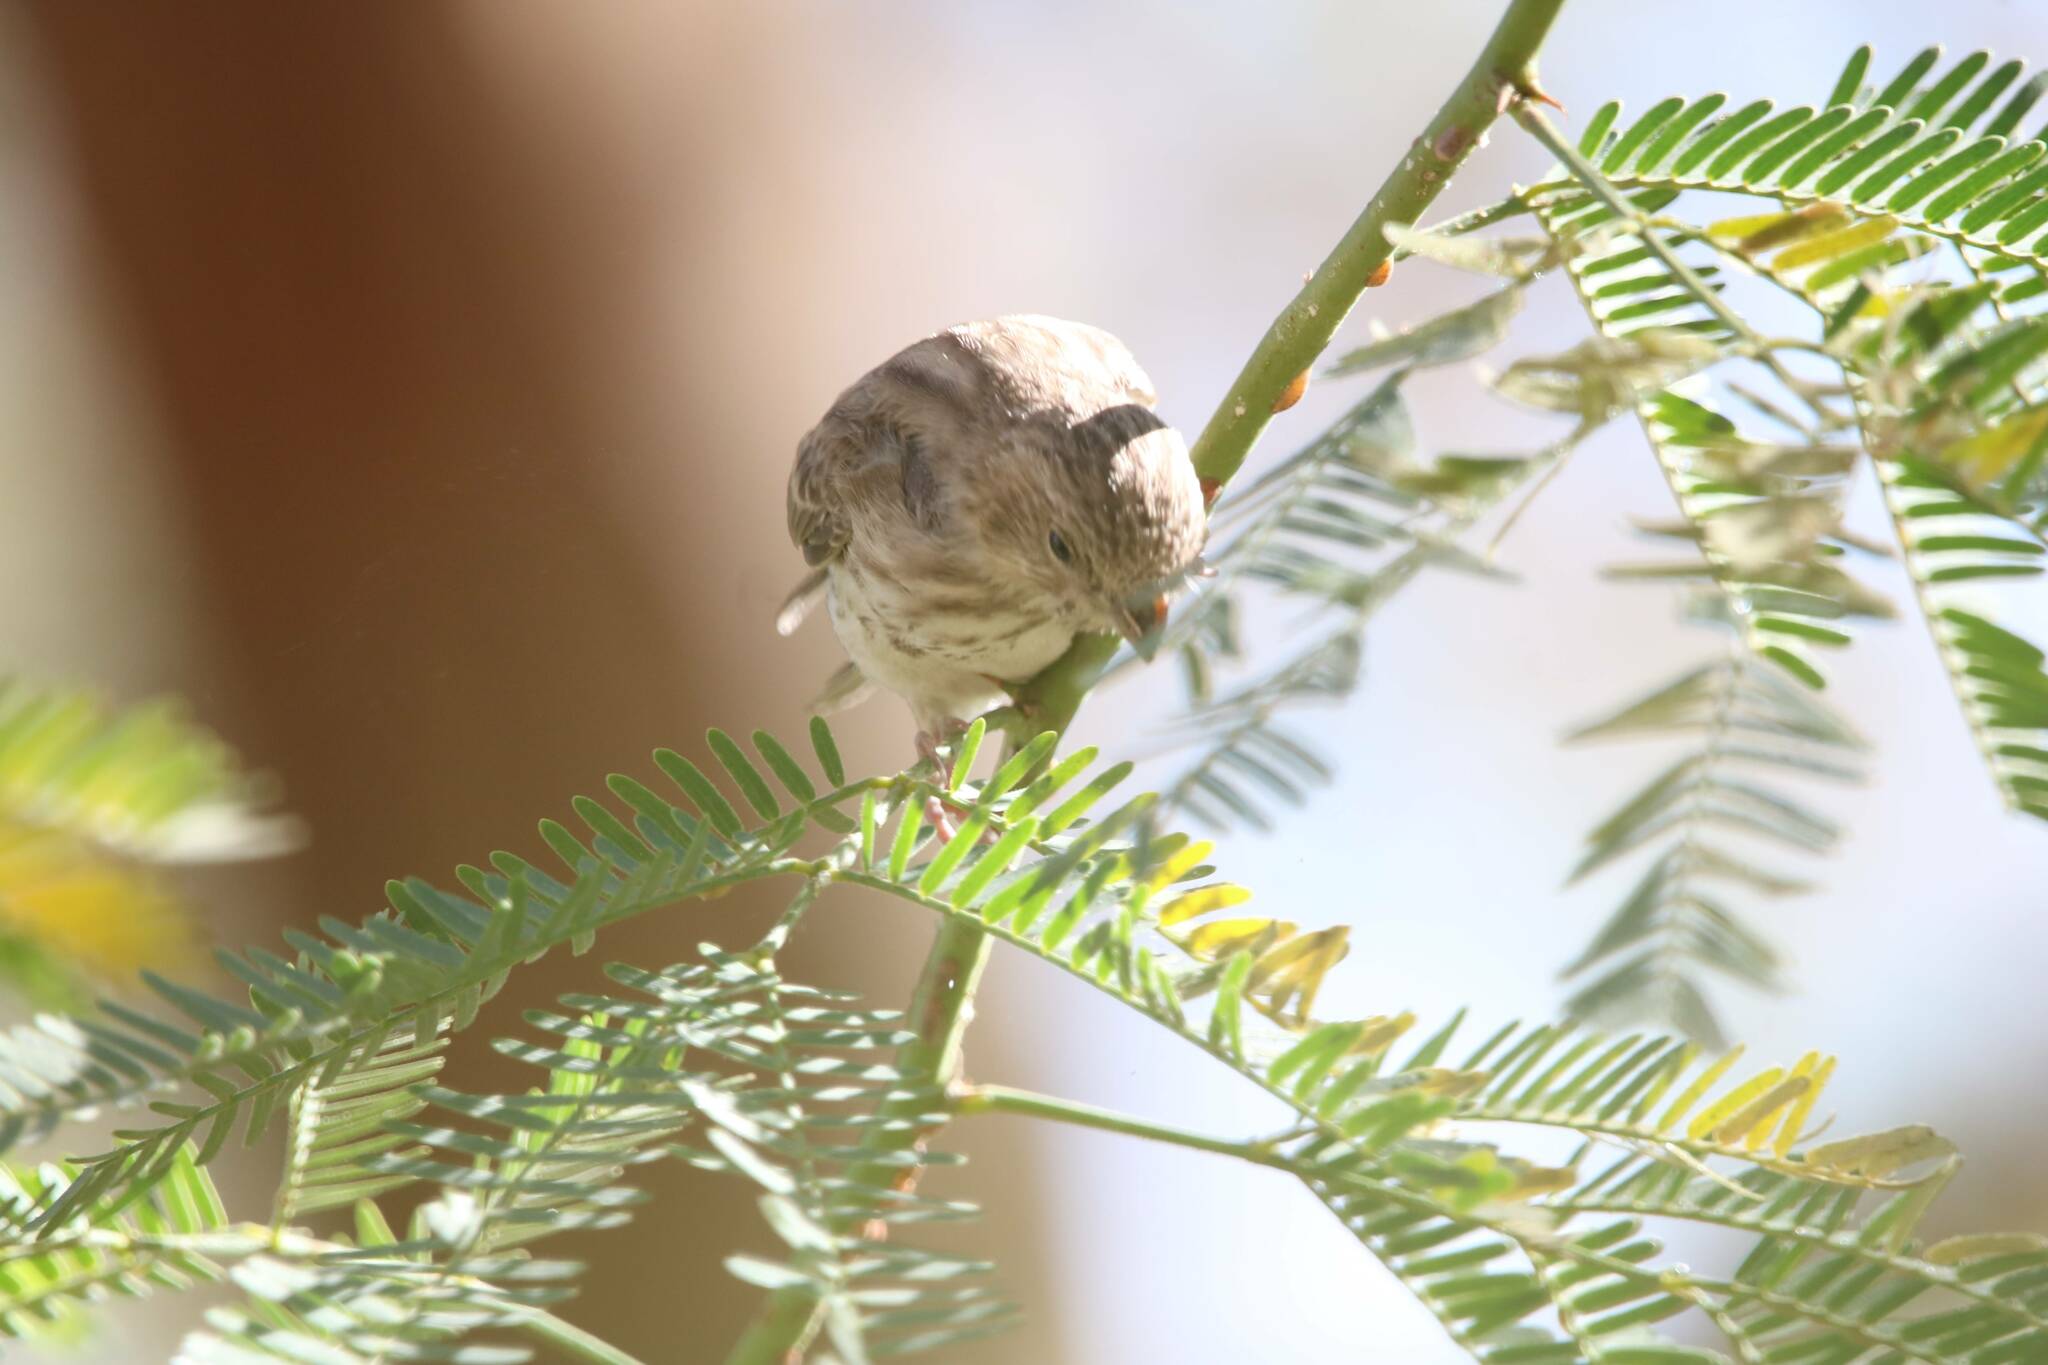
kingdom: Animalia
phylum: Chordata
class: Aves
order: Passeriformes
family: Fringillidae
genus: Crithagra
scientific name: Crithagra leucopygia
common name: White-rumped seedeater
